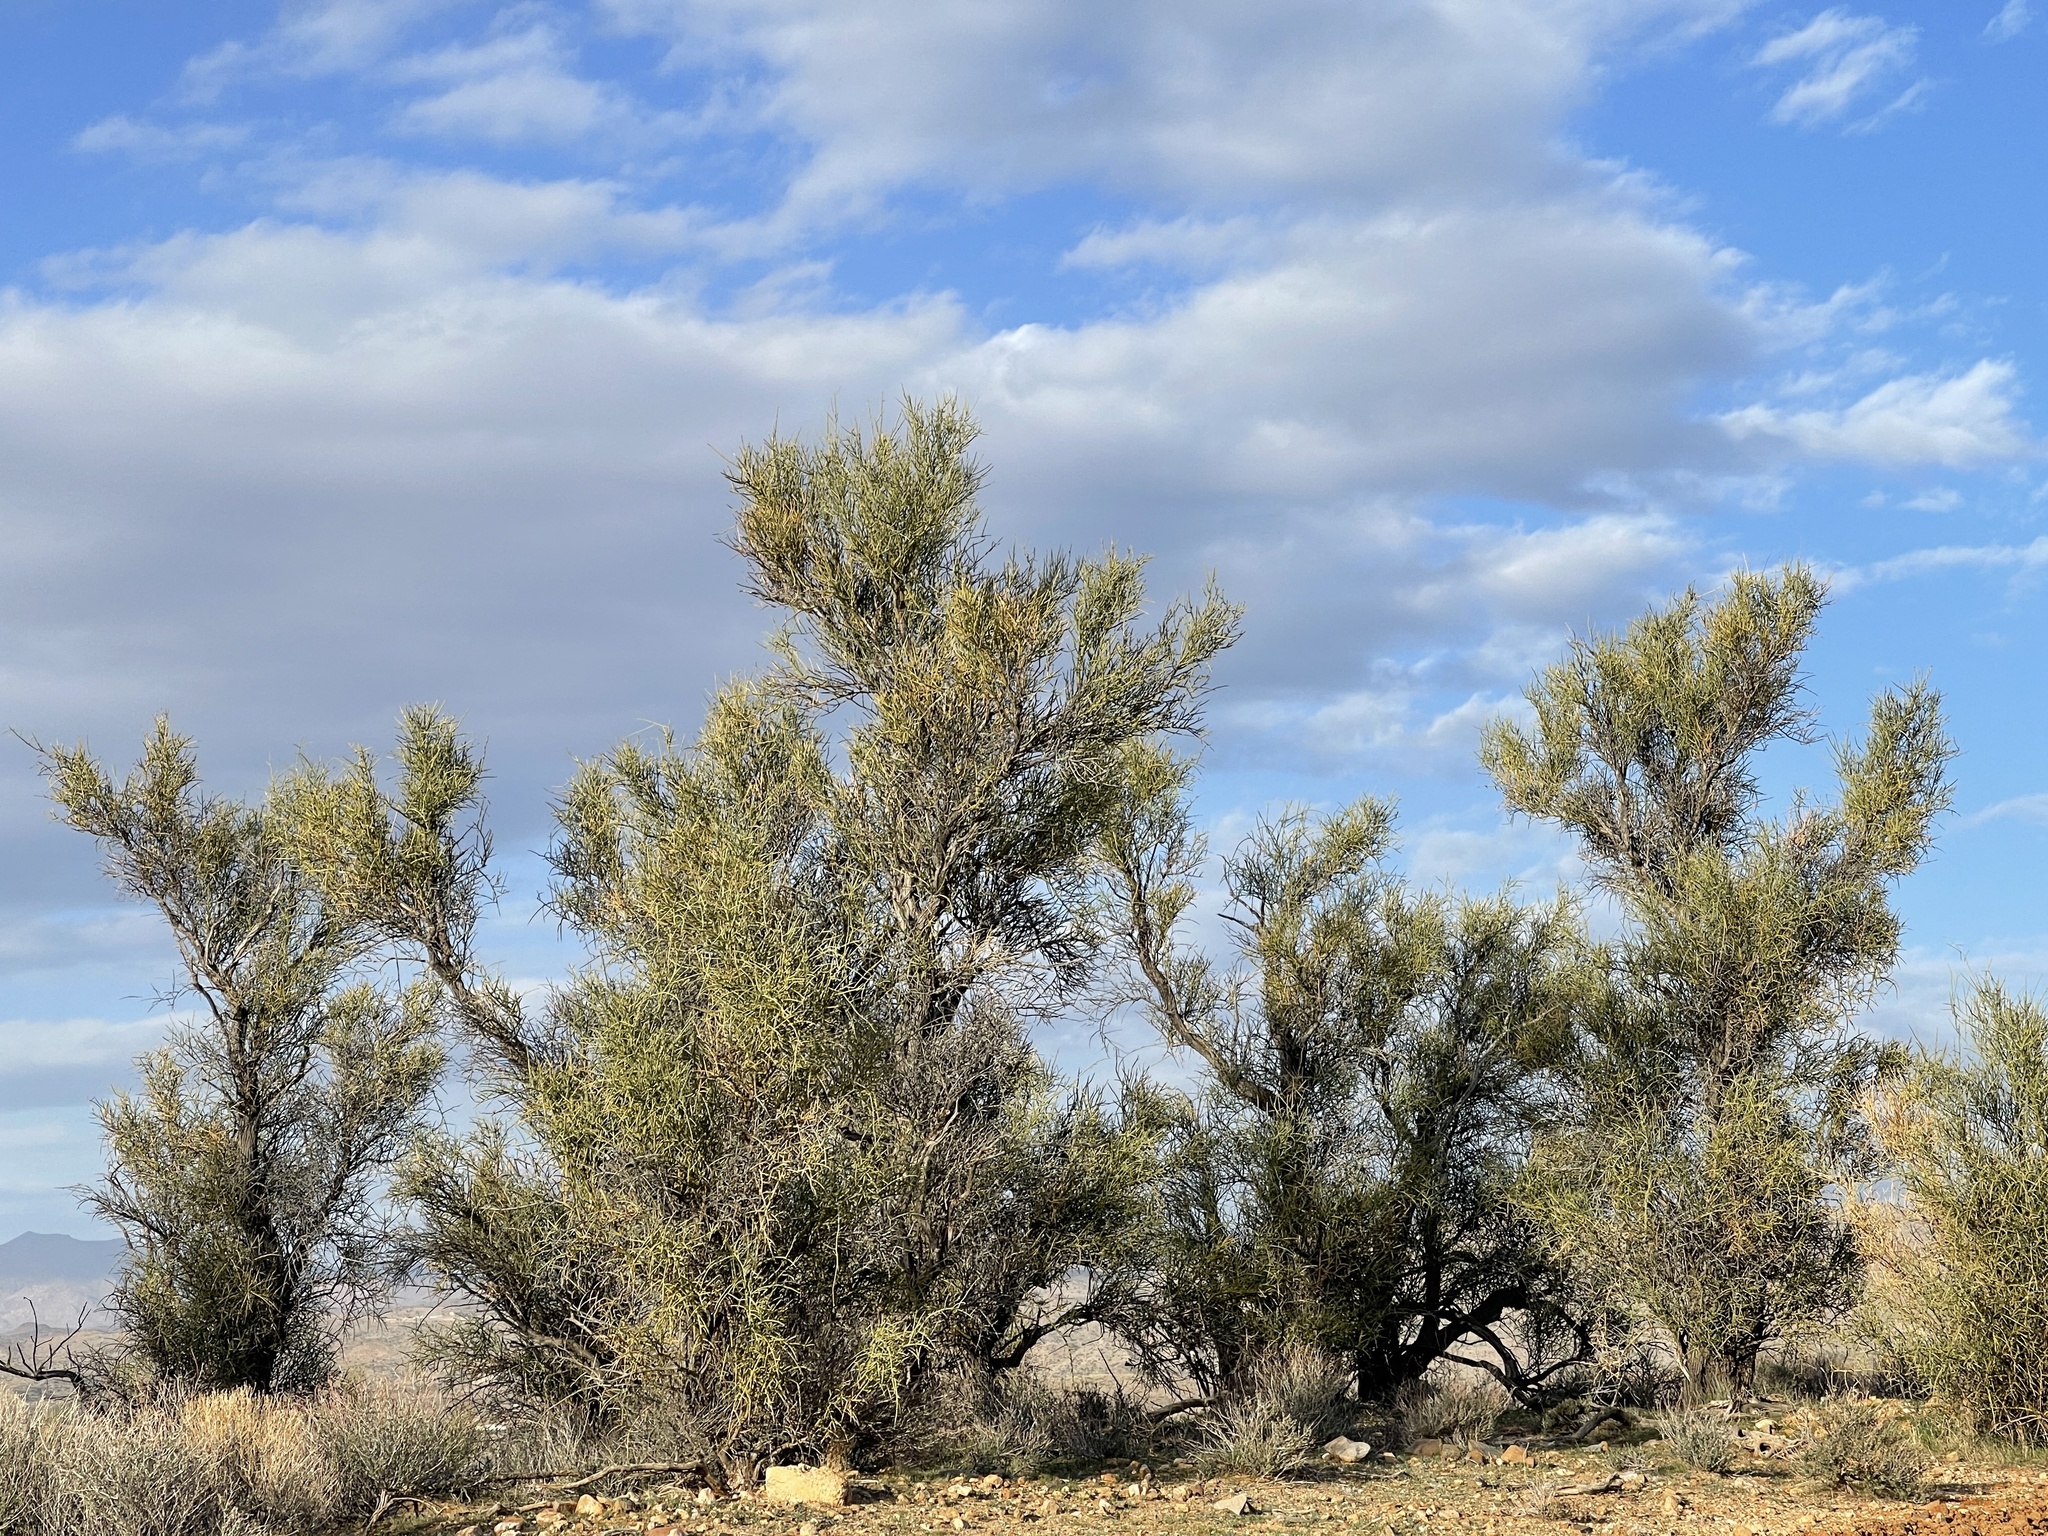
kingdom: Plantae
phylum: Tracheophyta
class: Magnoliopsida
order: Celastrales
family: Celastraceae
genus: Canotia
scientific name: Canotia holacantha
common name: Crucifixion thorns
